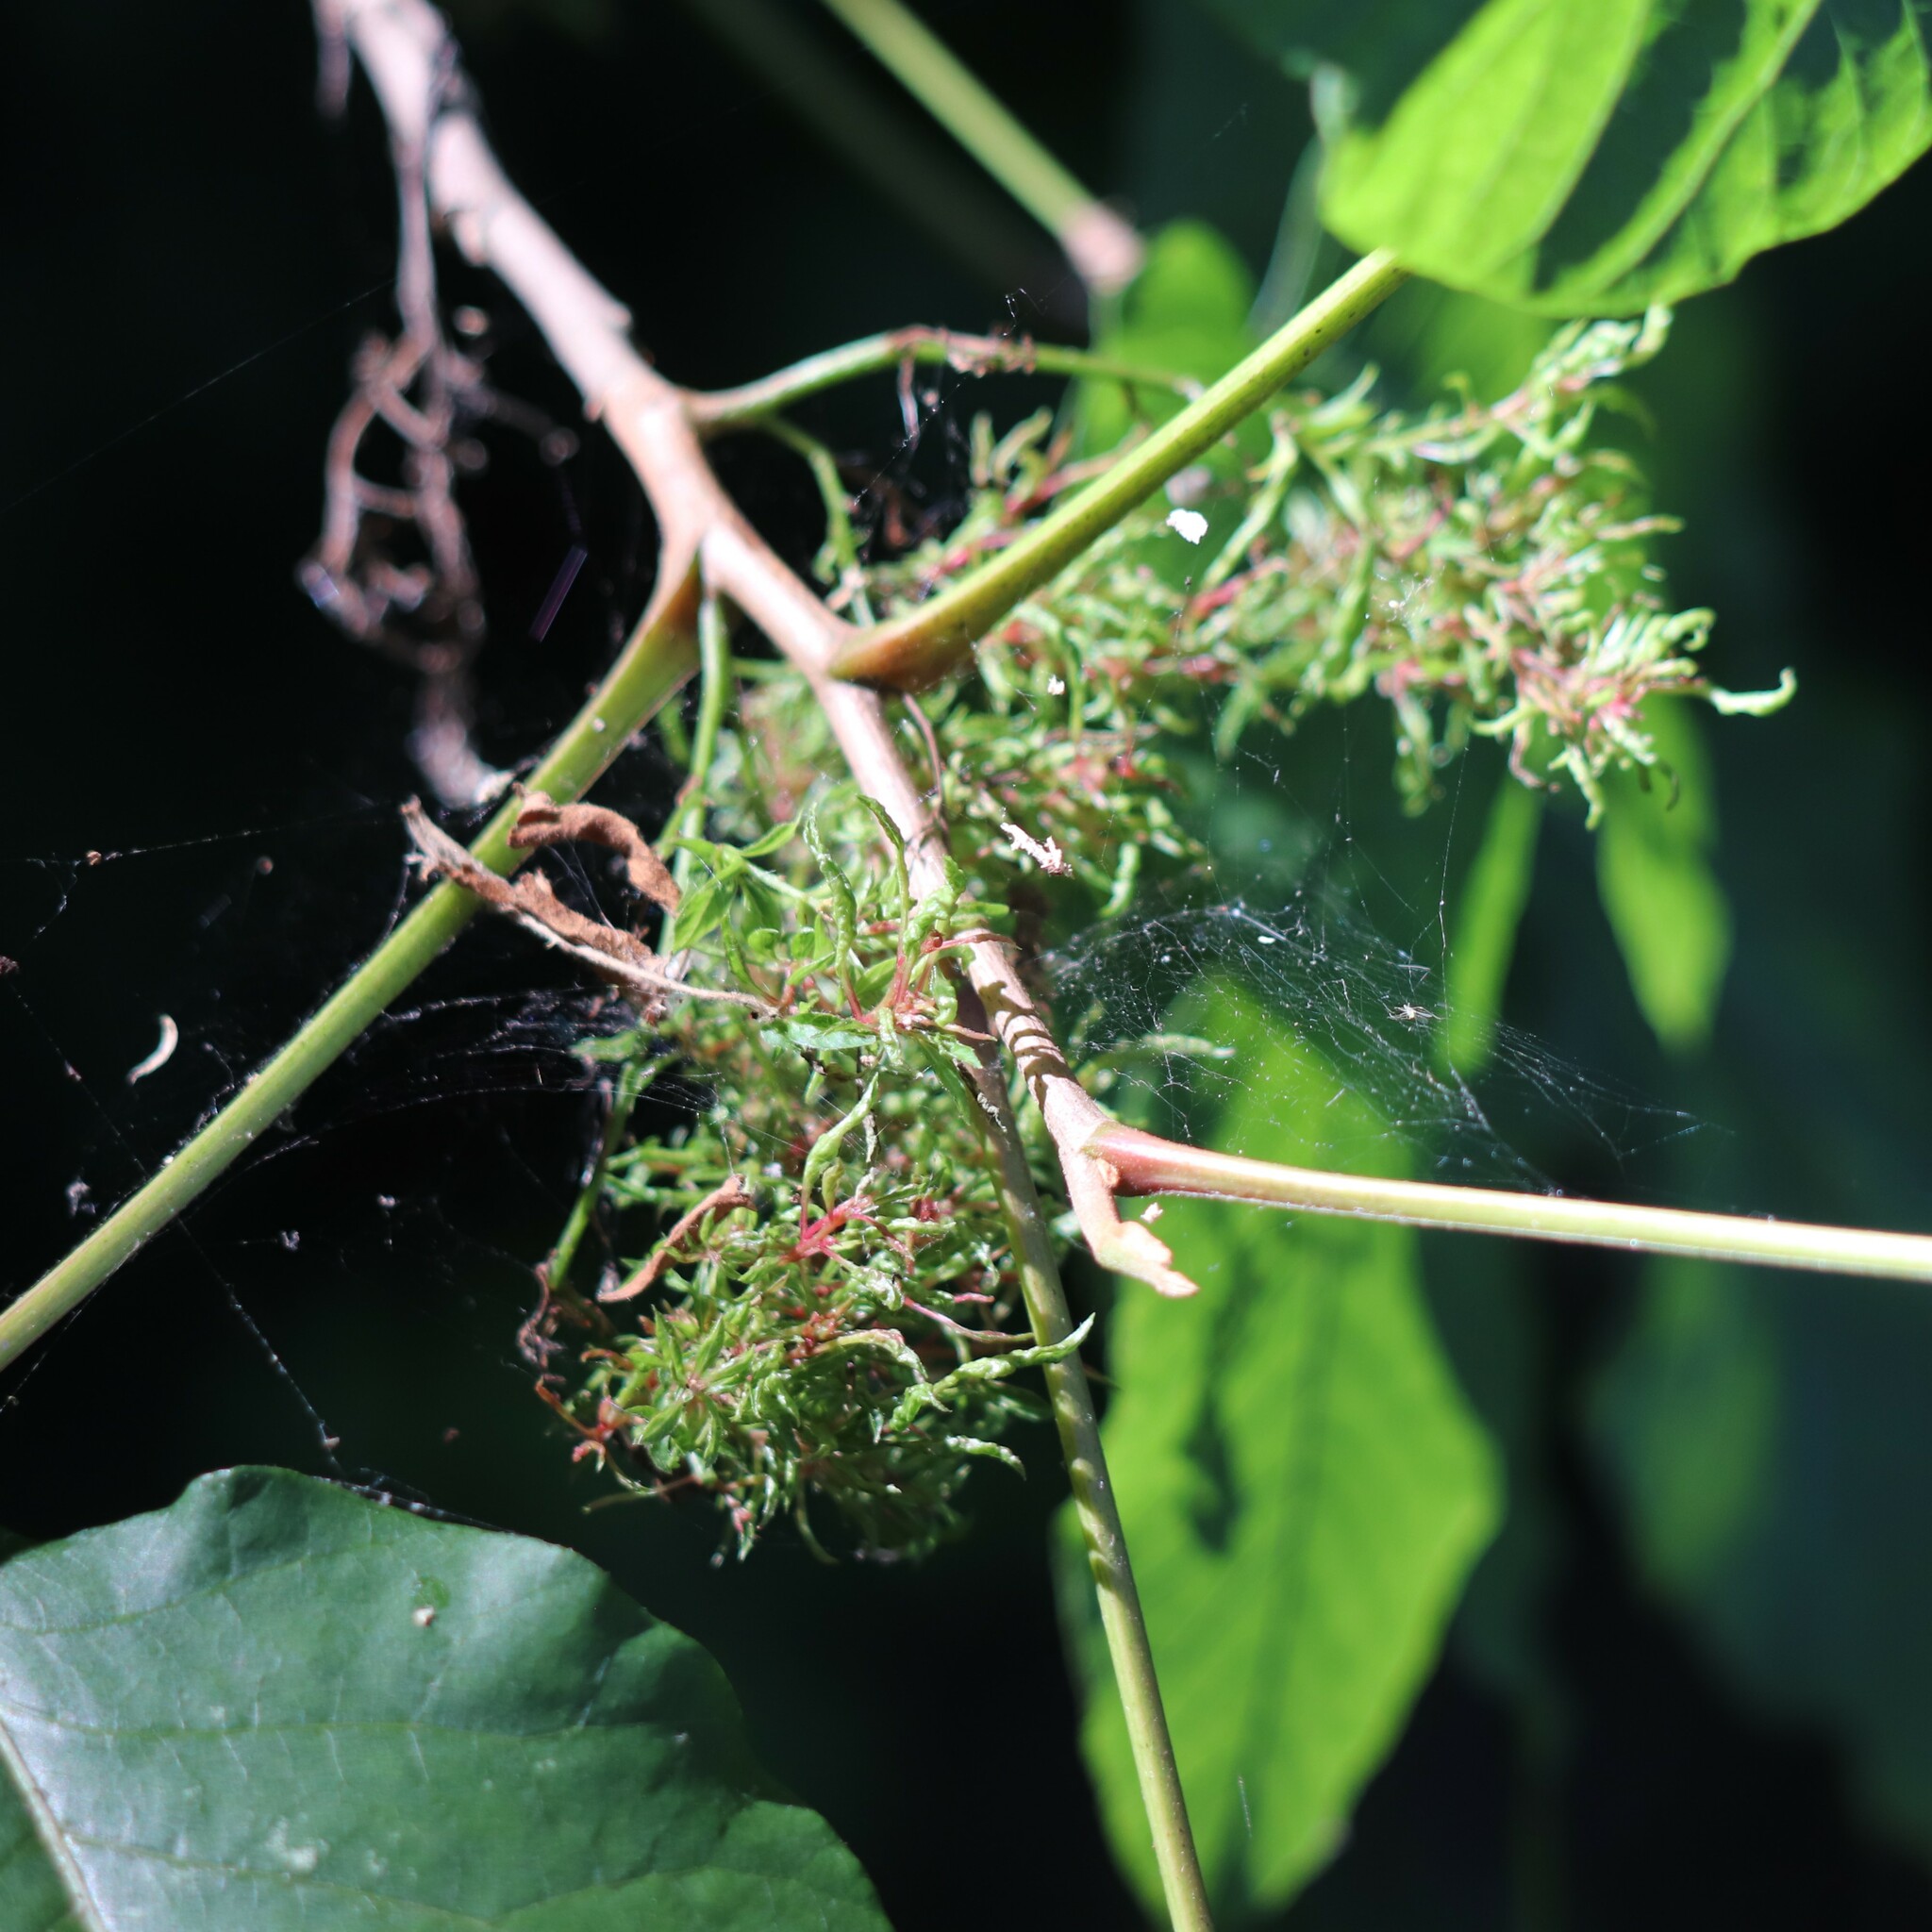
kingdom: Animalia
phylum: Arthropoda
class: Arachnida
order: Trombidiformes
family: Eriophyidae
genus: Eriophyes
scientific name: Eriophyes
